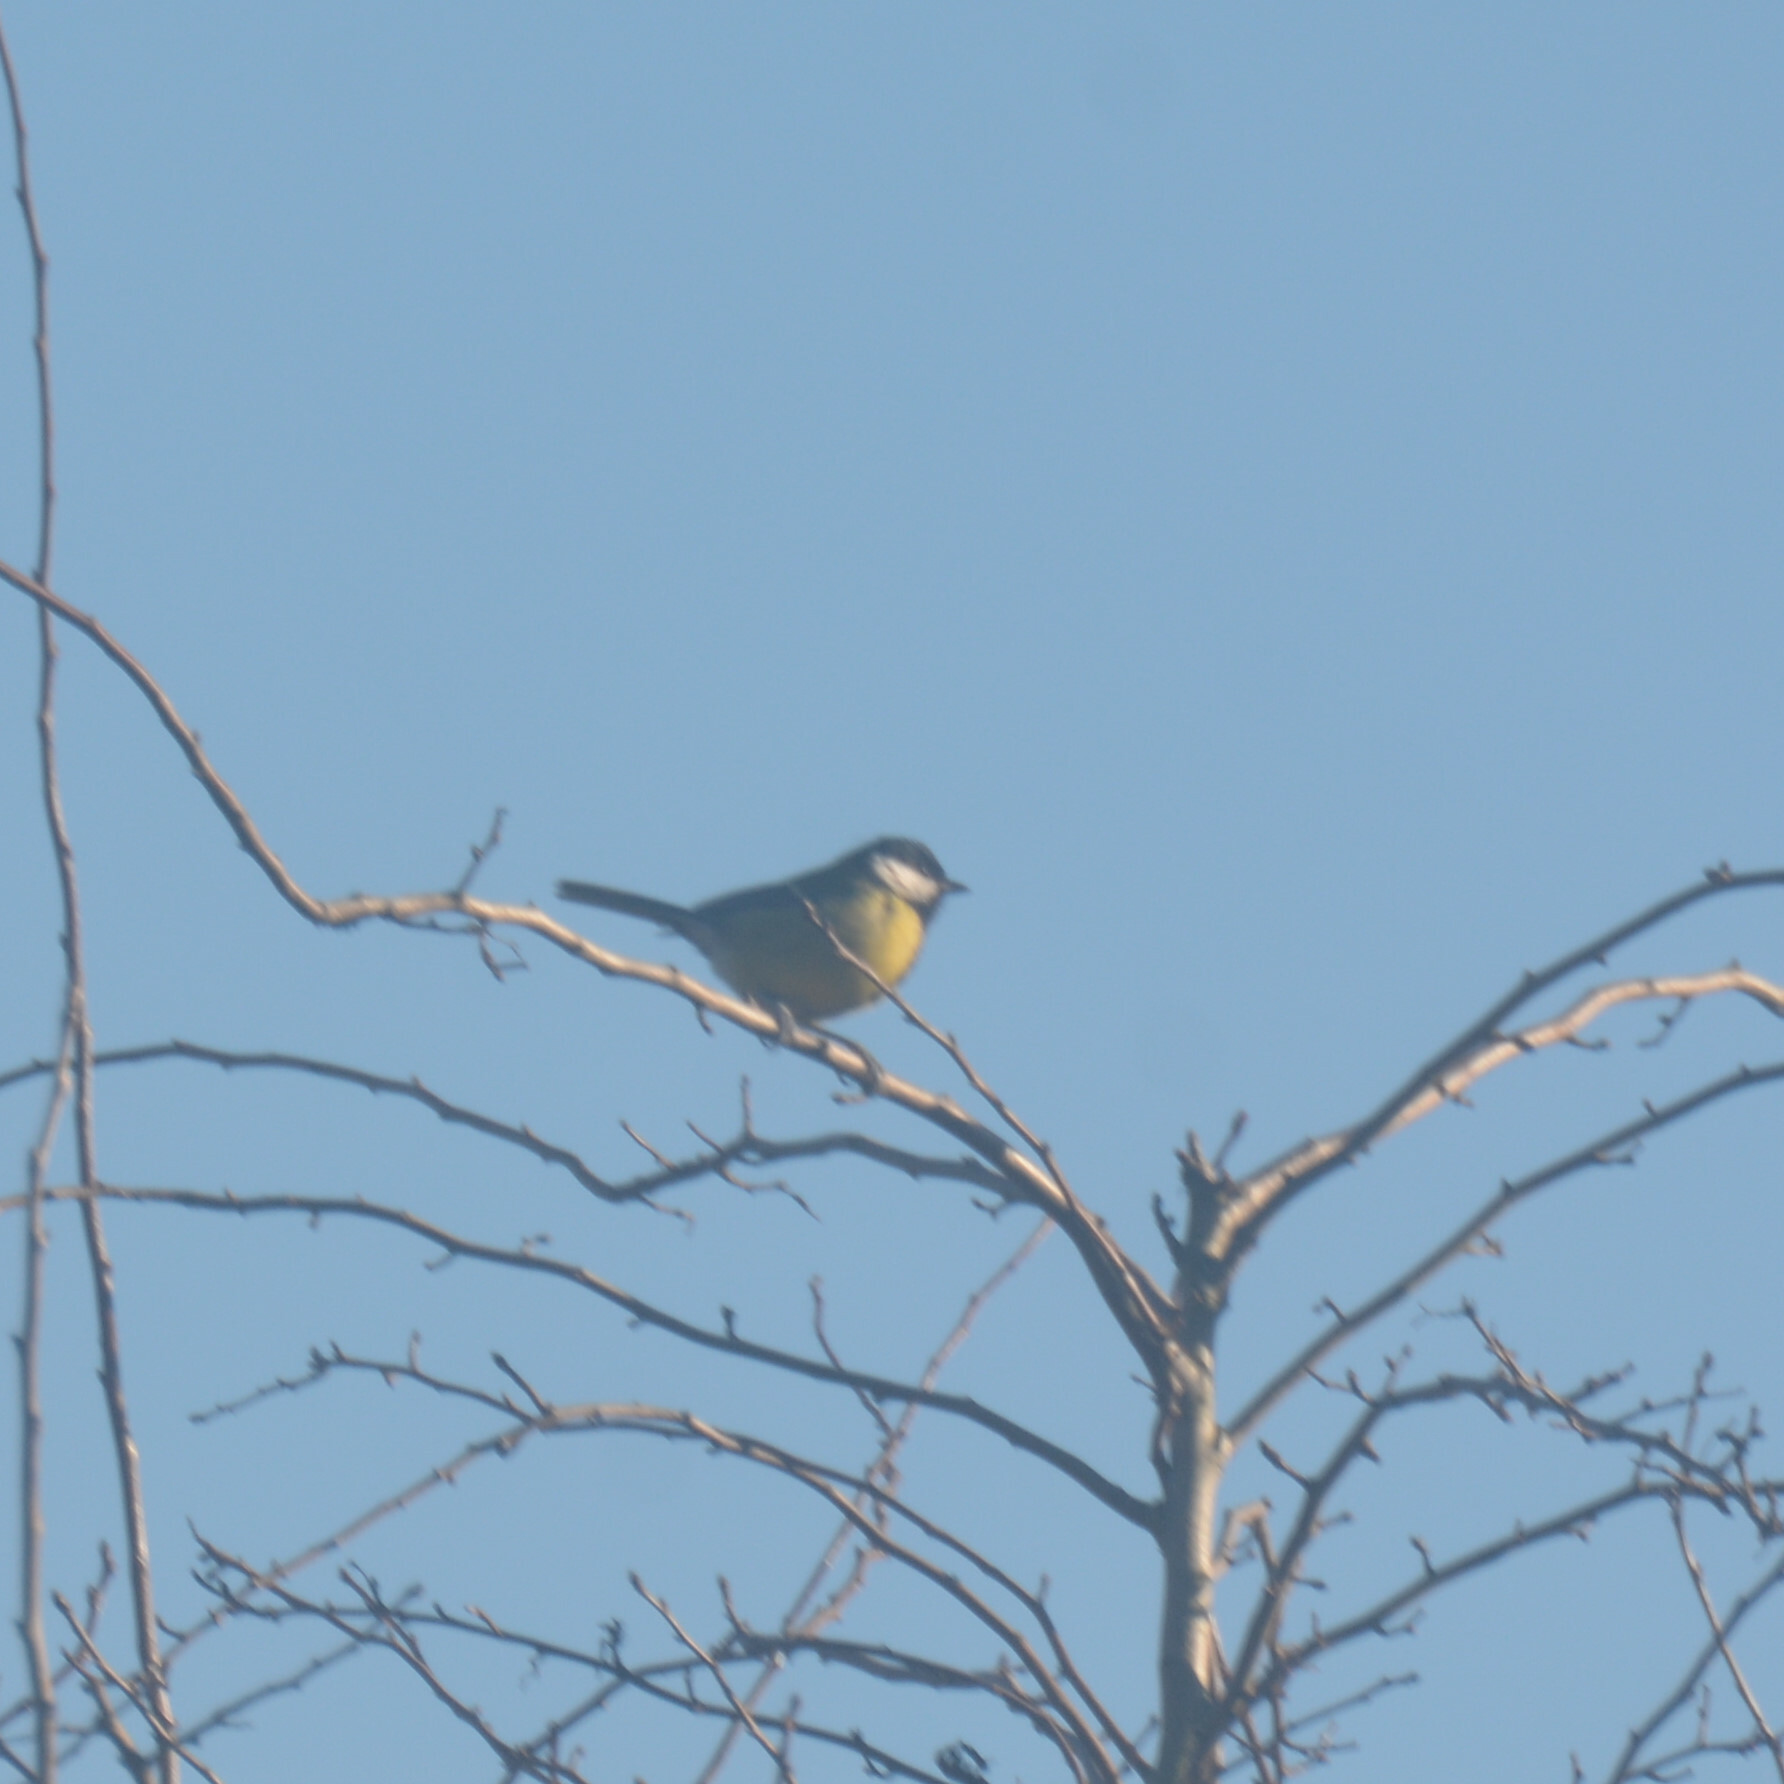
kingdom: Animalia
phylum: Chordata
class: Aves
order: Passeriformes
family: Paridae
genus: Parus
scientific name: Parus major
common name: Great tit
